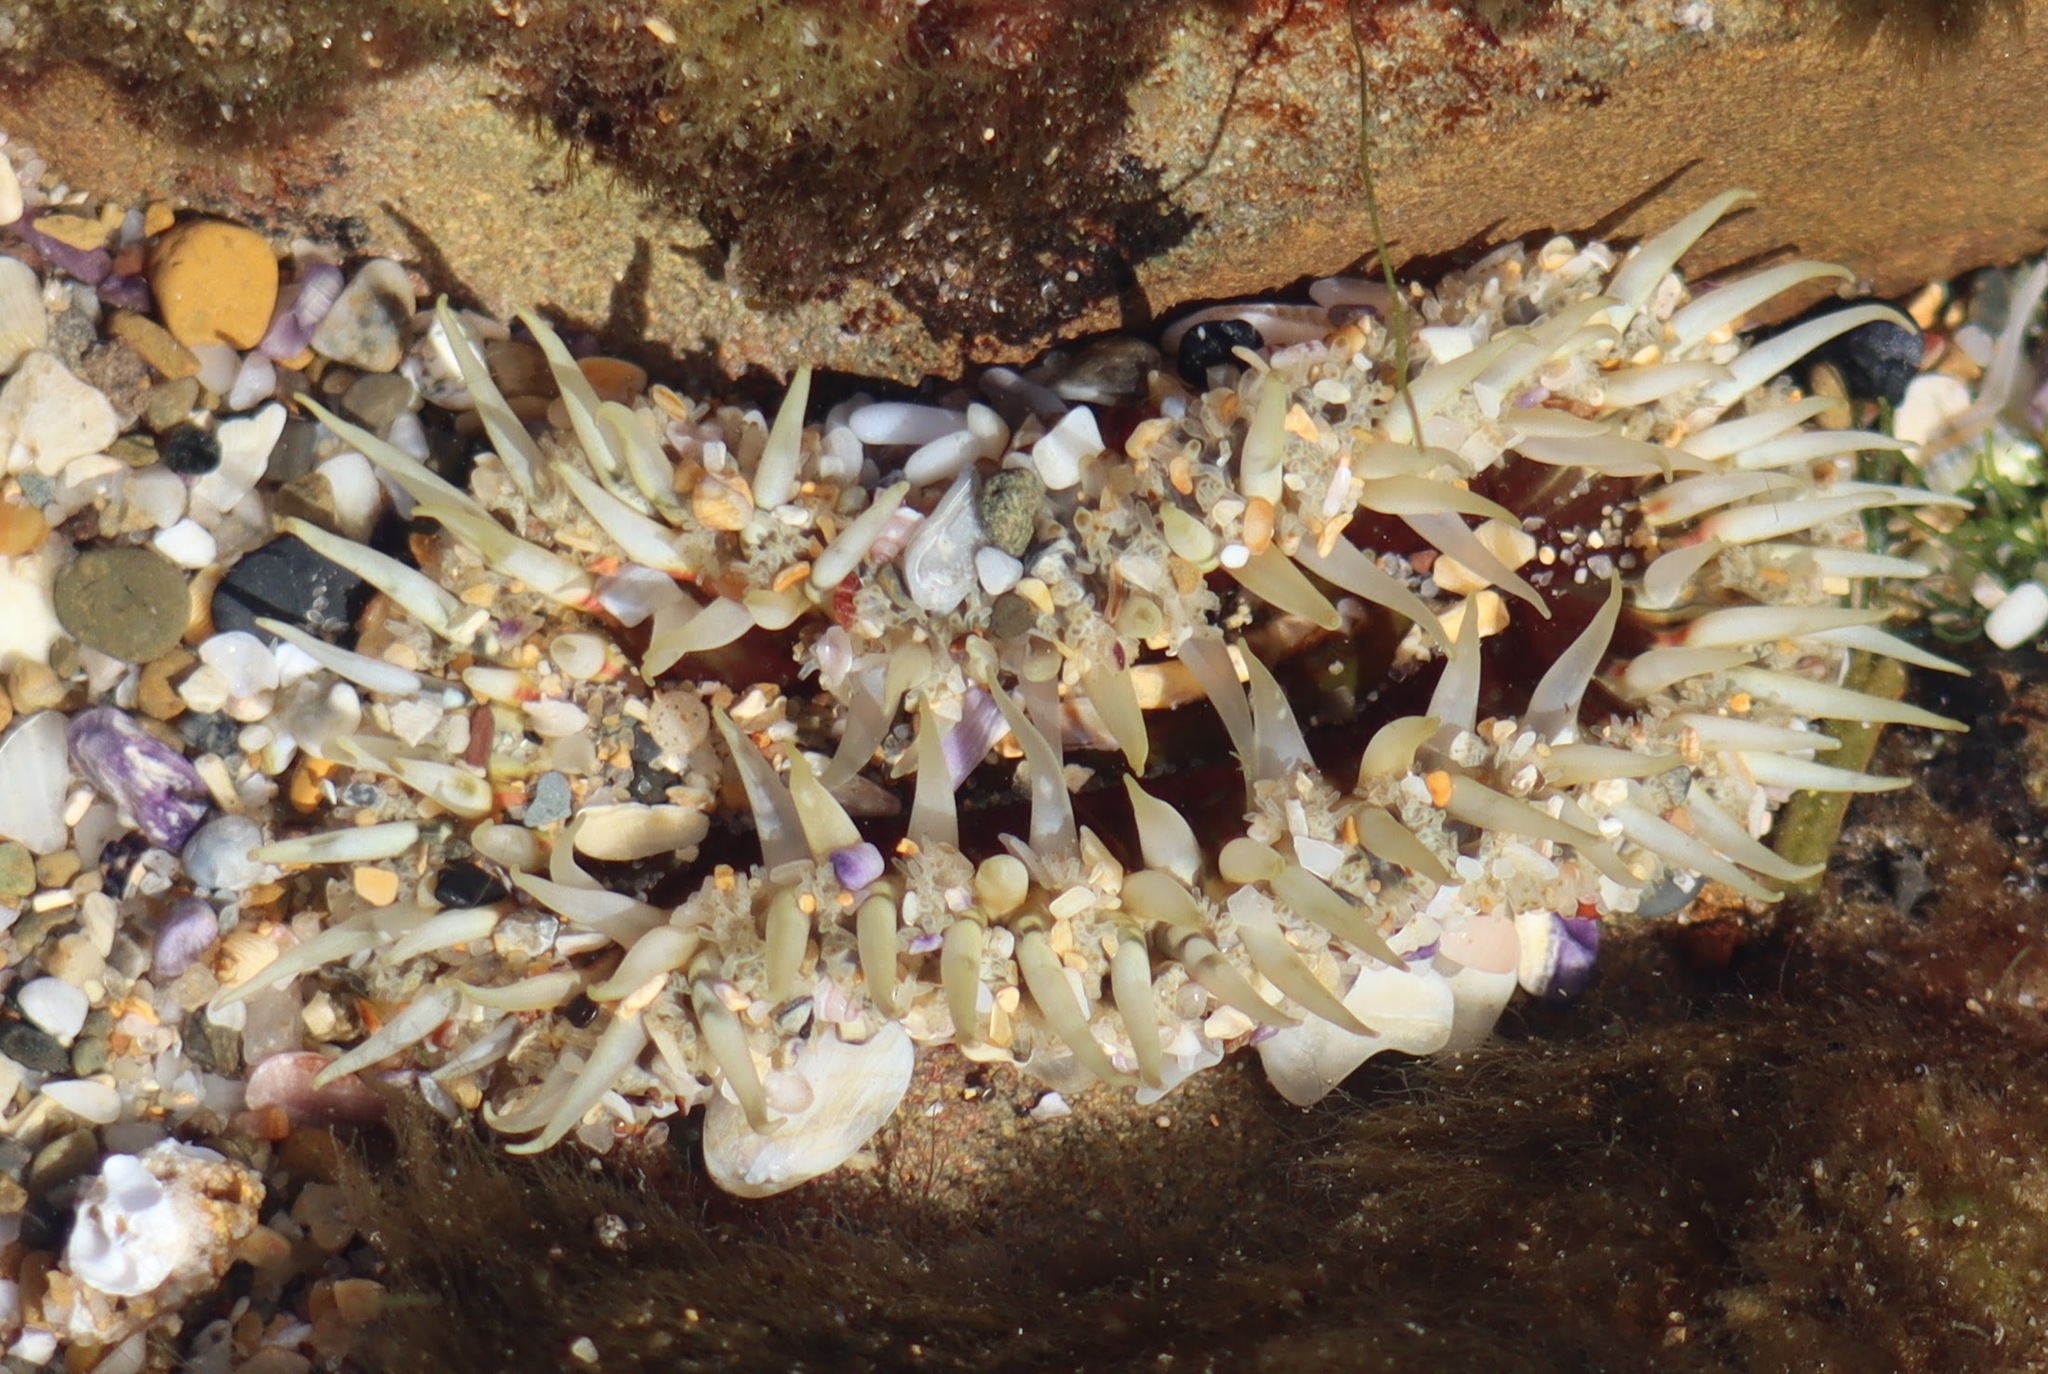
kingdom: Animalia
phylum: Cnidaria
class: Anthozoa
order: Actiniaria
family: Actiniidae
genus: Oulactis
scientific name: Oulactis muscosa
